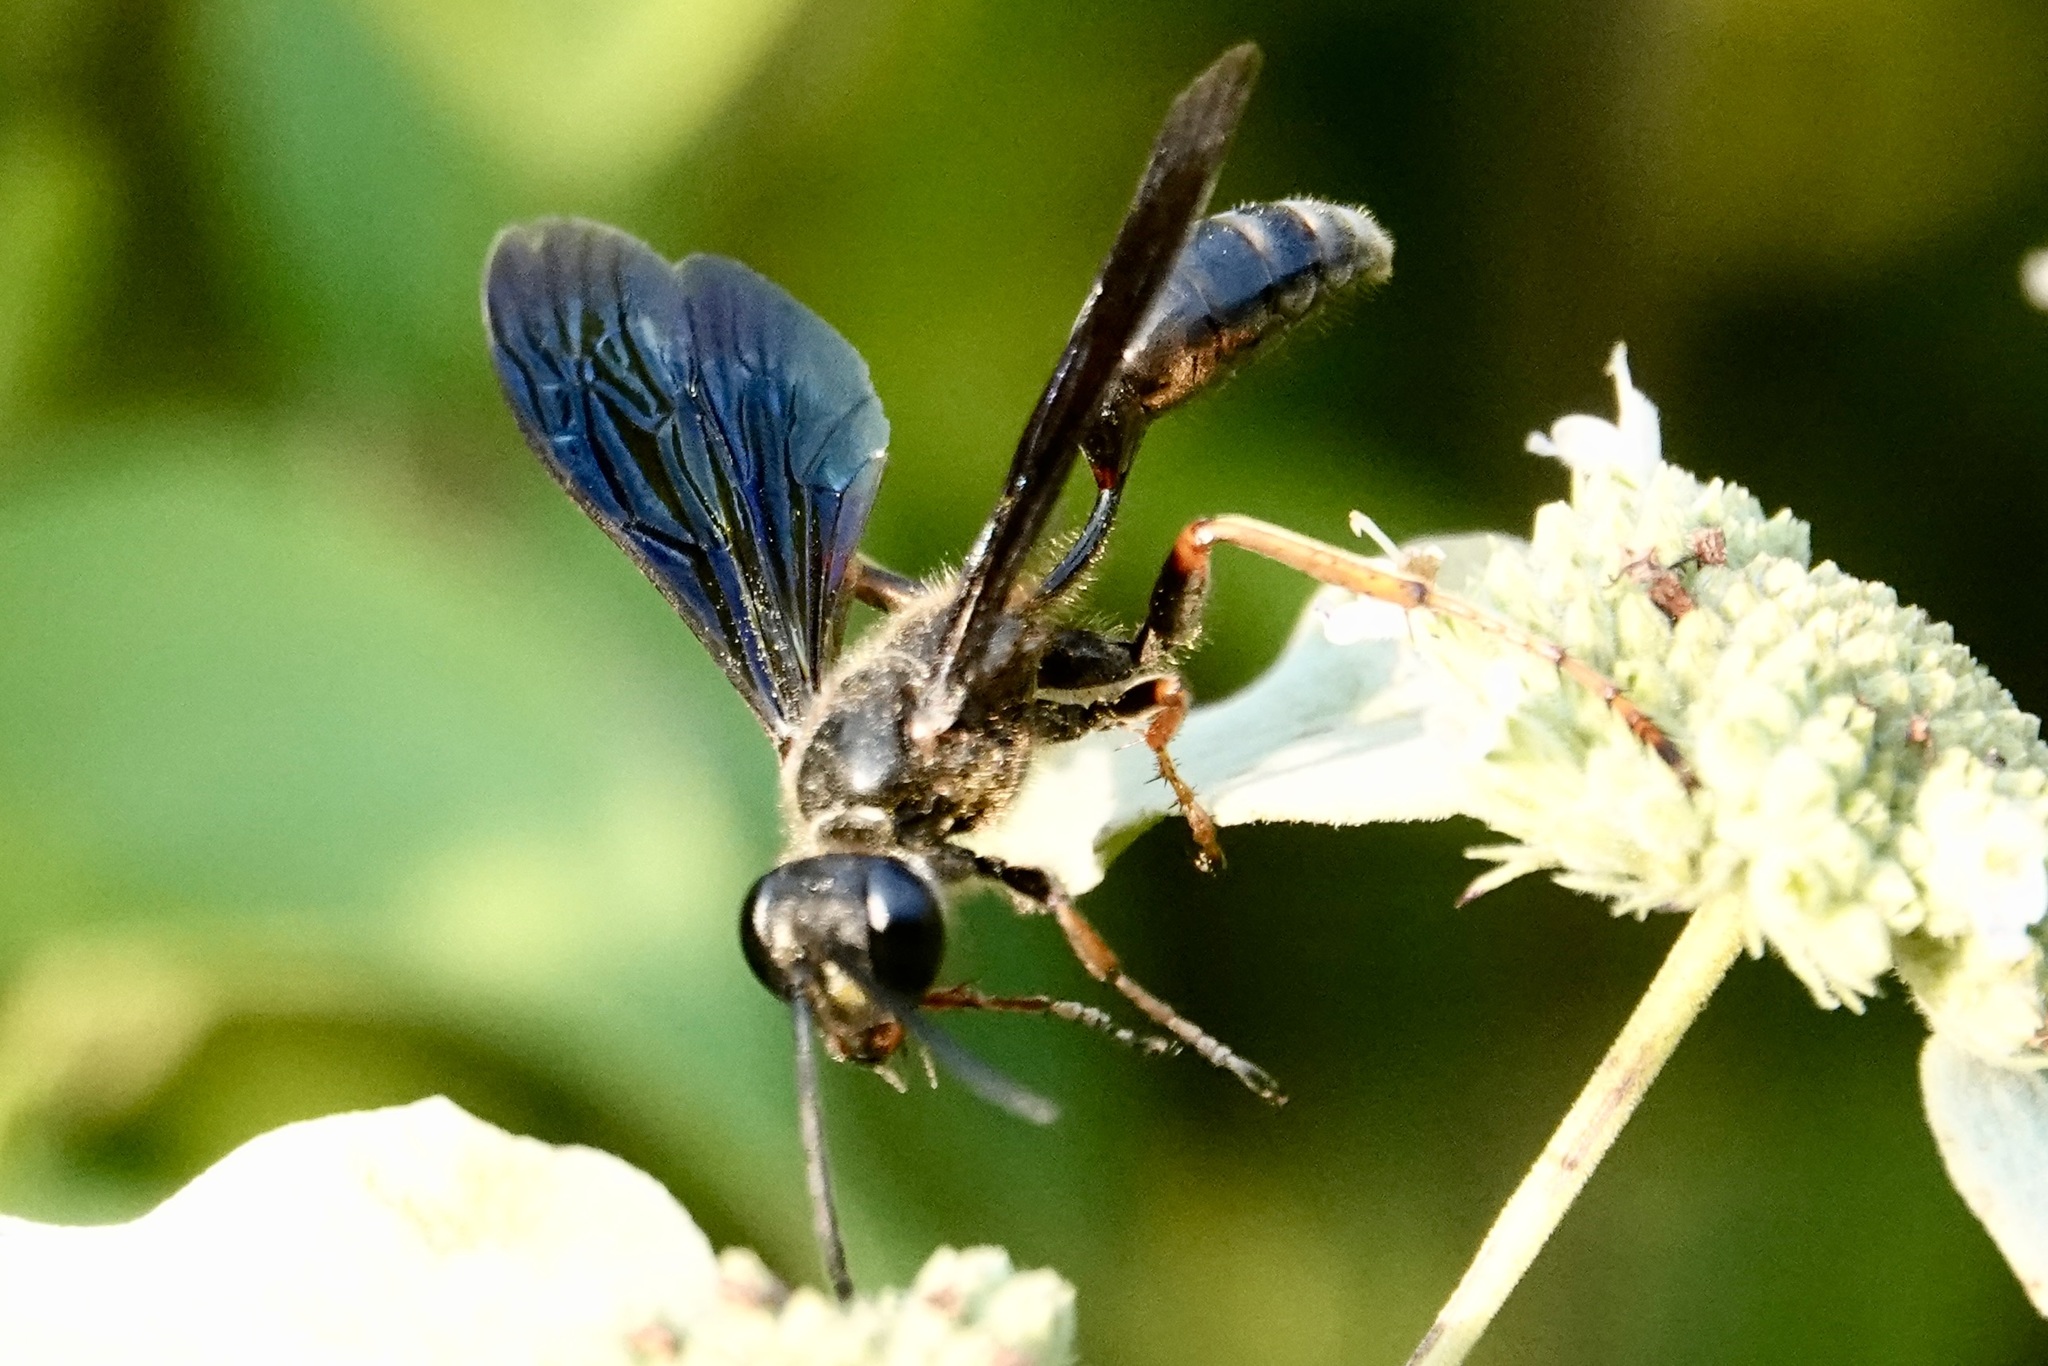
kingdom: Animalia
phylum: Arthropoda
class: Insecta
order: Hymenoptera
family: Sphecidae
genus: Isodontia
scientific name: Isodontia auripes
